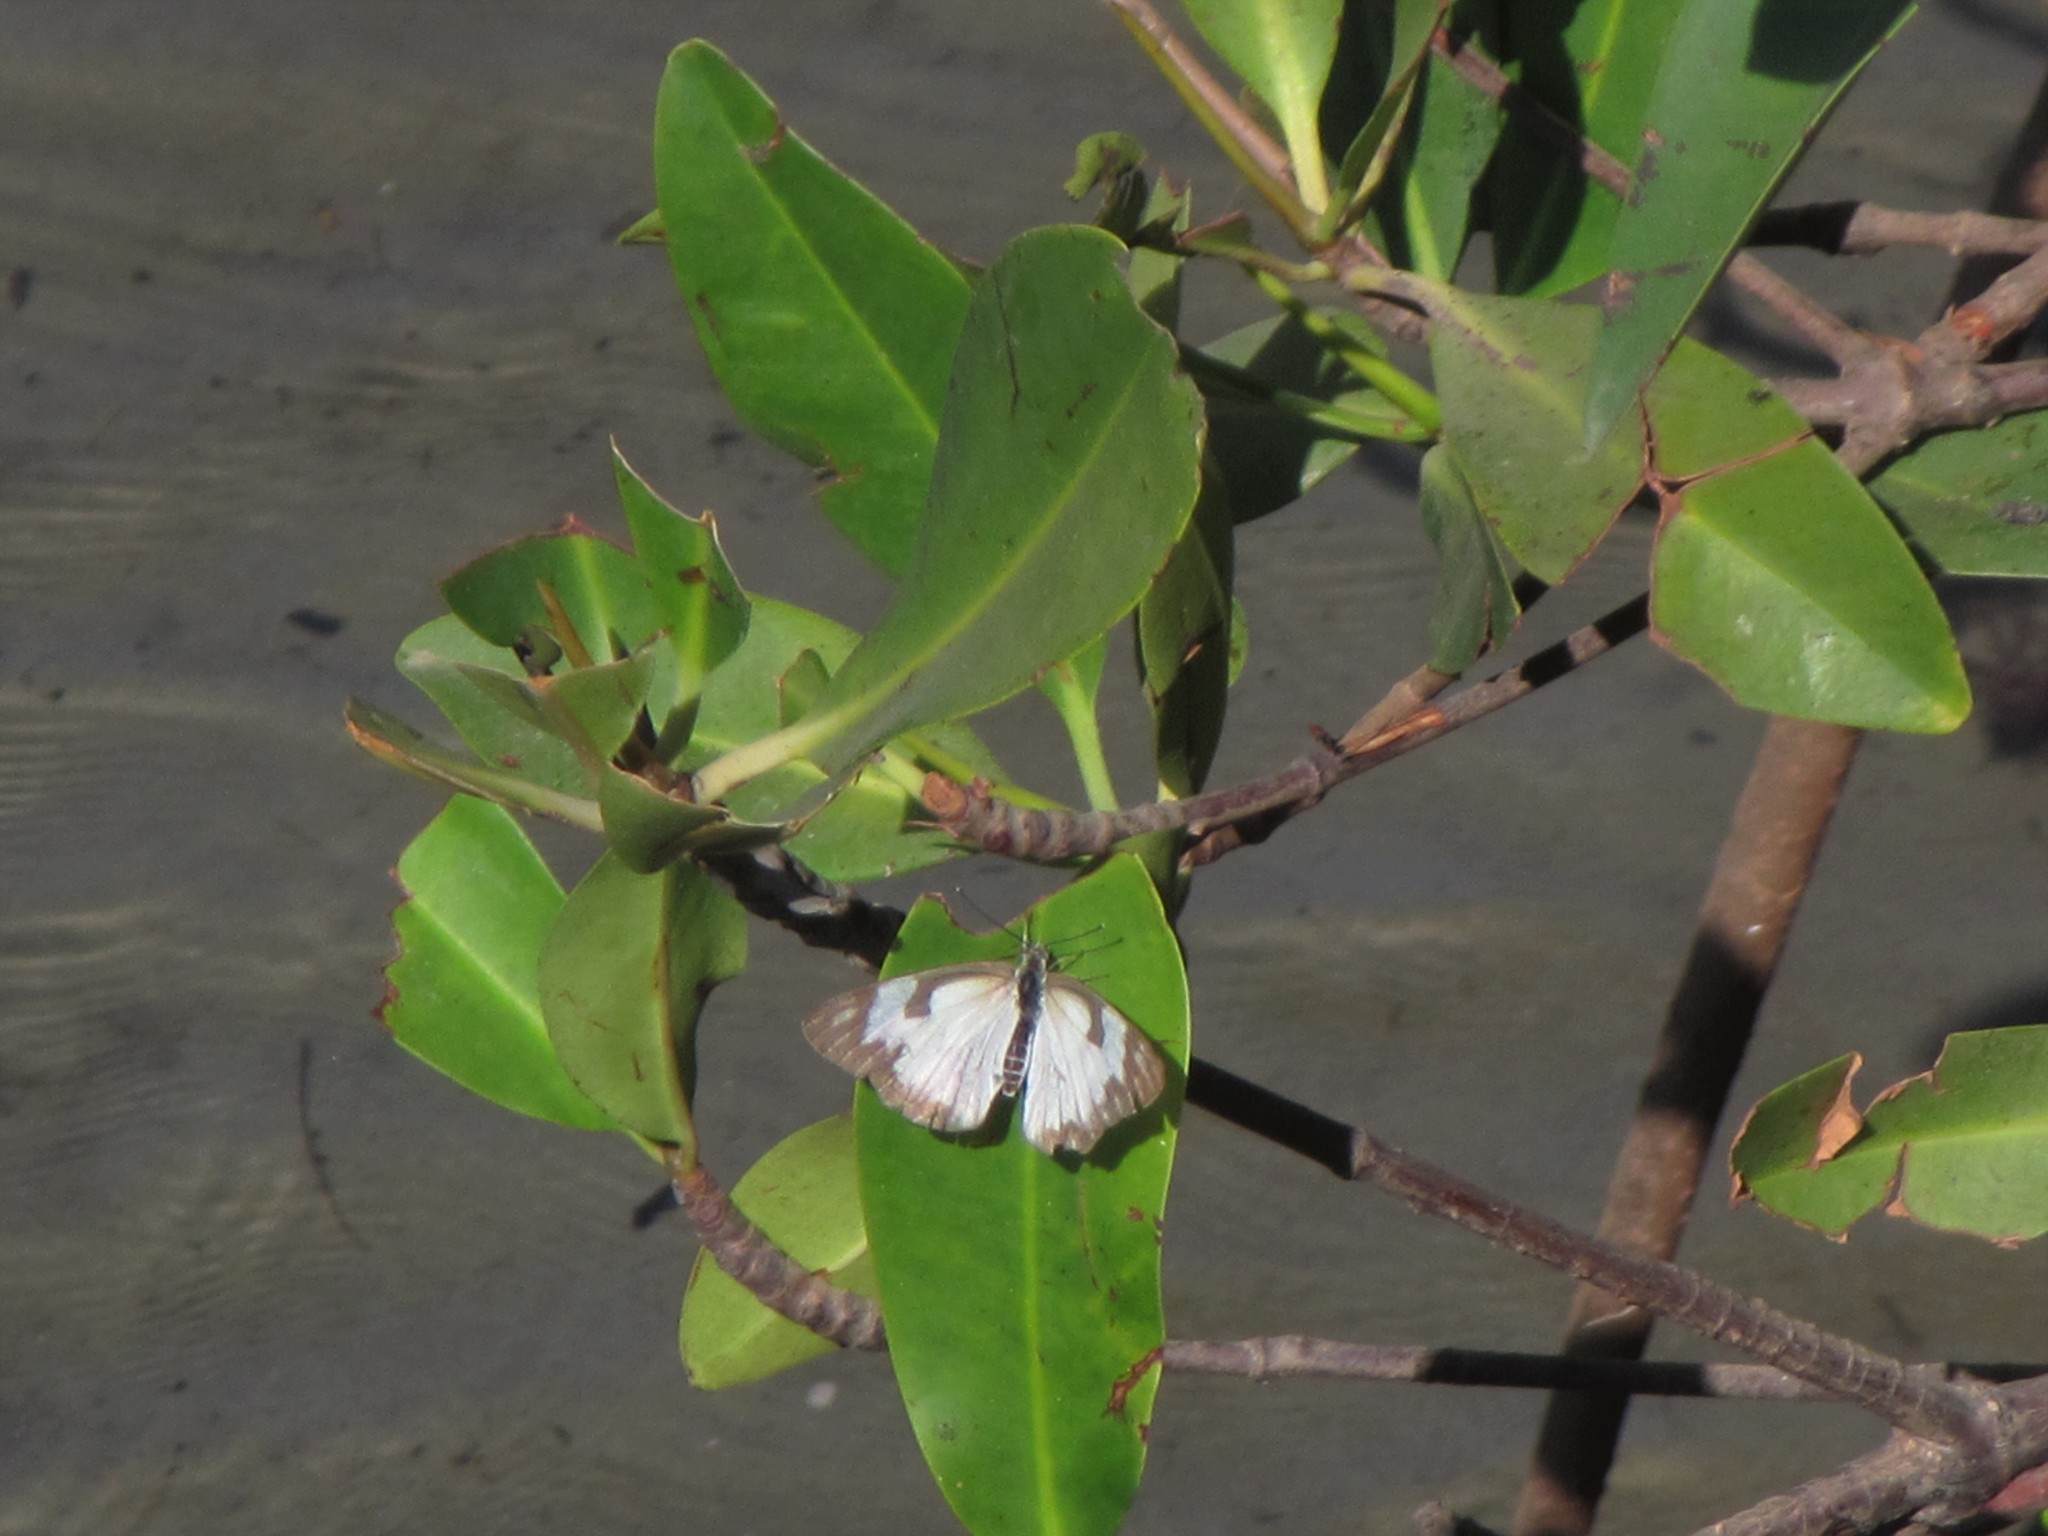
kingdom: Animalia
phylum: Arthropoda
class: Insecta
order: Lepidoptera
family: Pieridae
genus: Belenois
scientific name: Belenois aurota
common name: Brown-veined white
